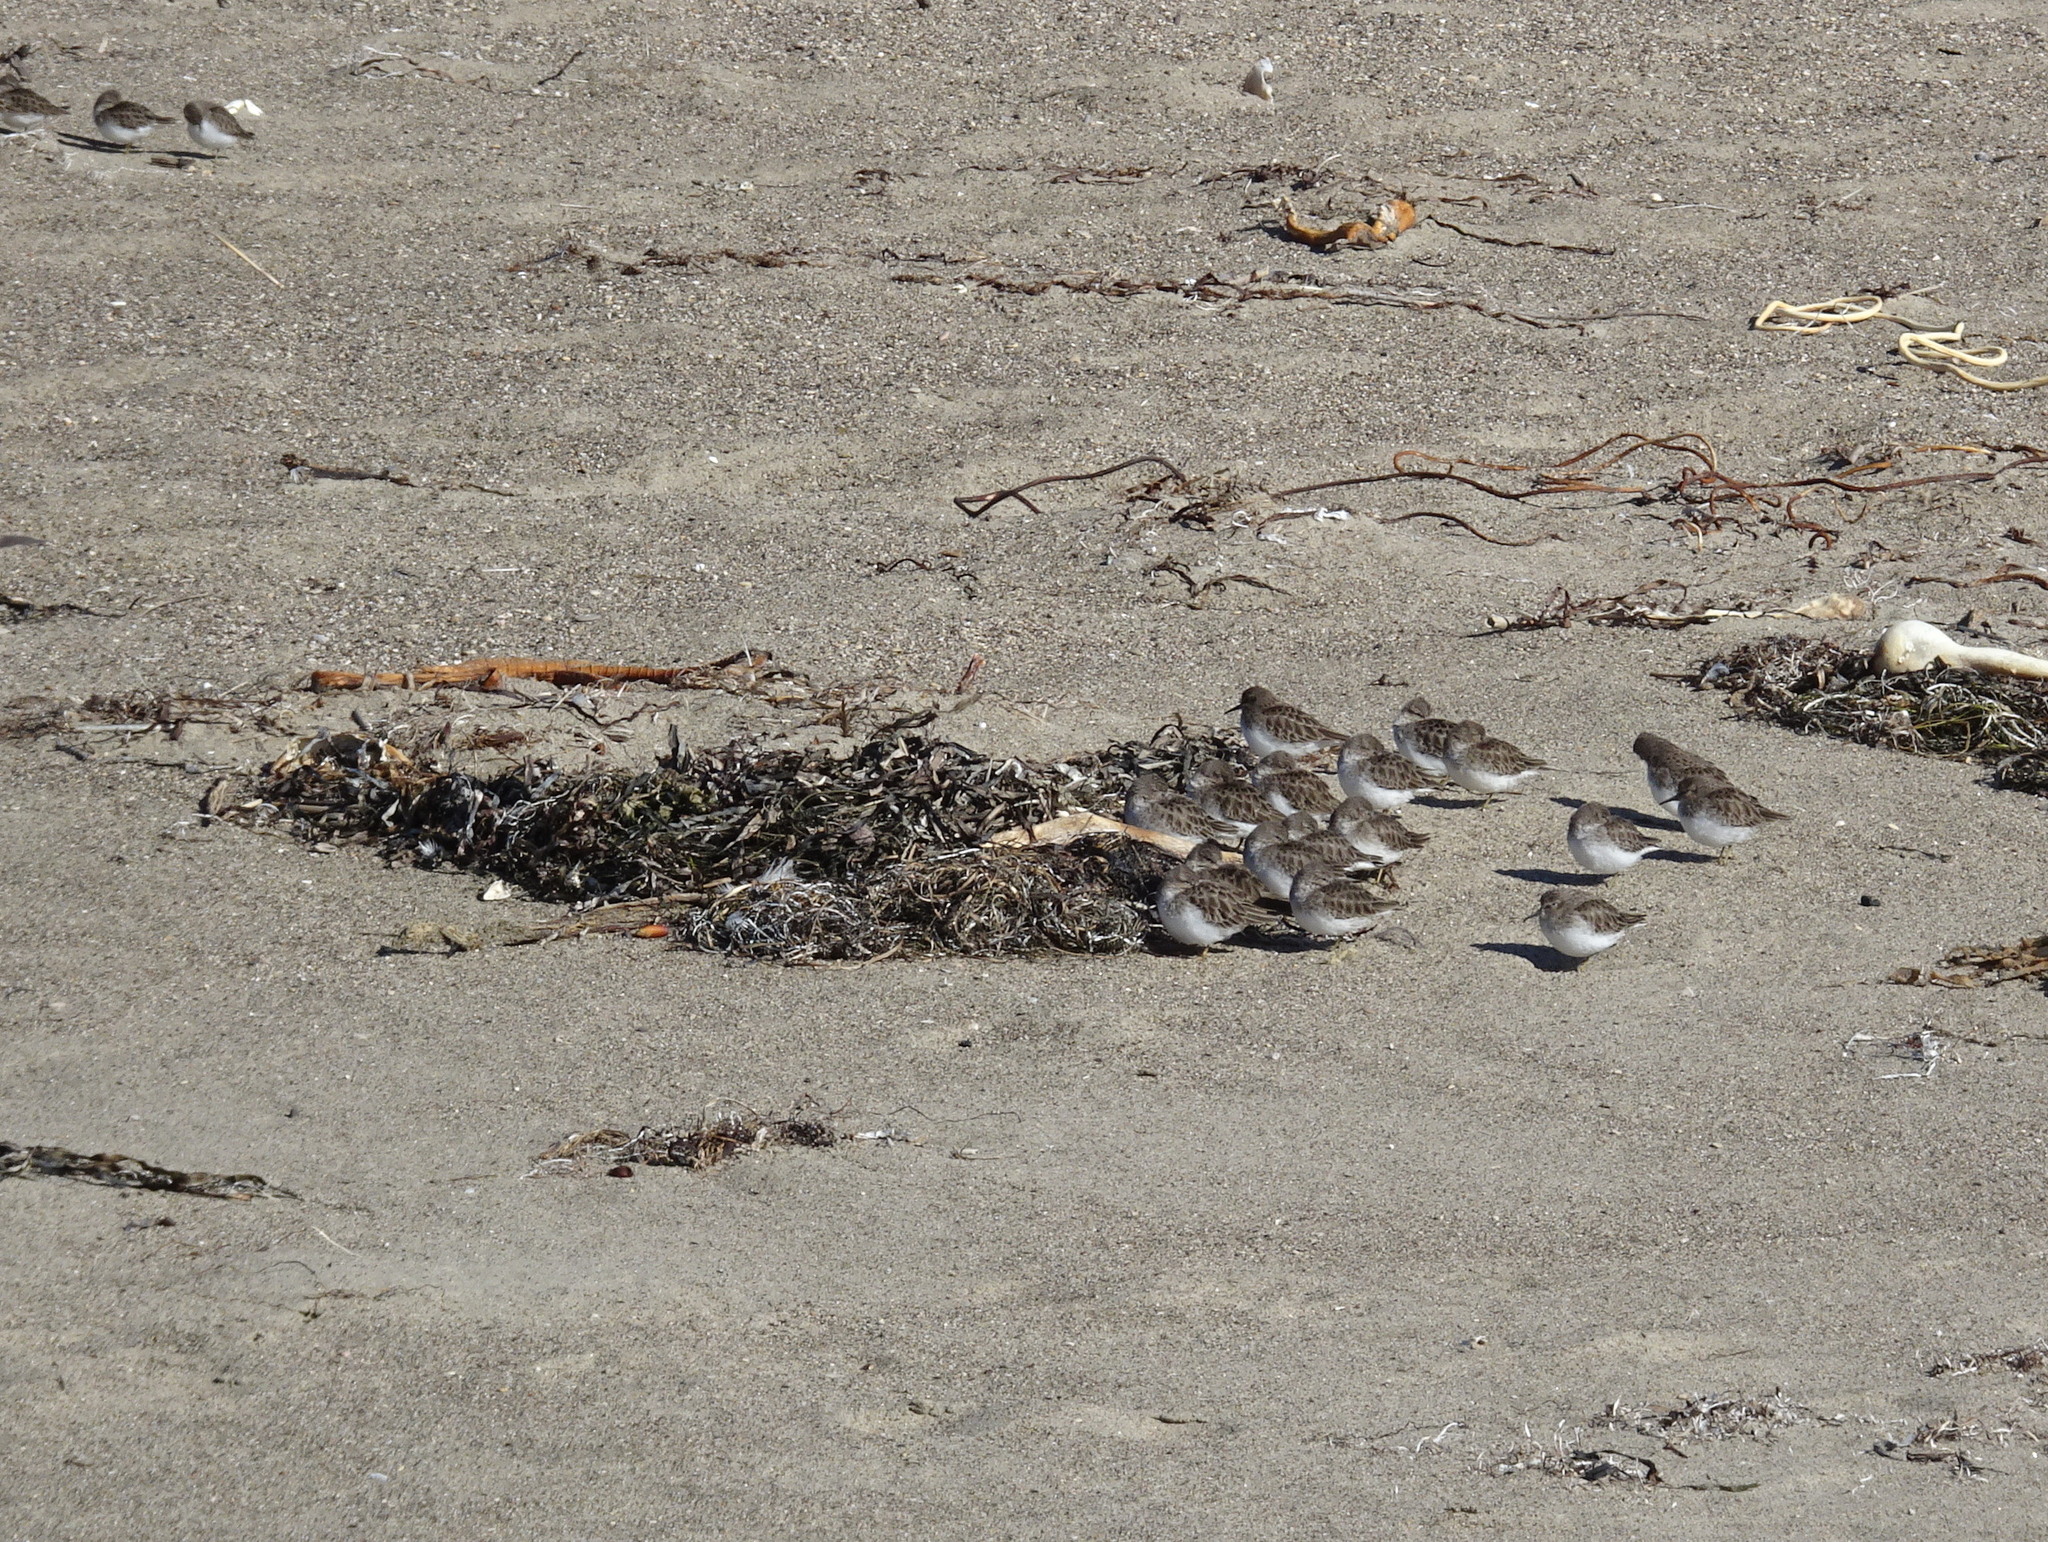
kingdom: Animalia
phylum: Chordata
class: Aves
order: Charadriiformes
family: Scolopacidae
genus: Calidris
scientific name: Calidris minutilla
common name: Least sandpiper
